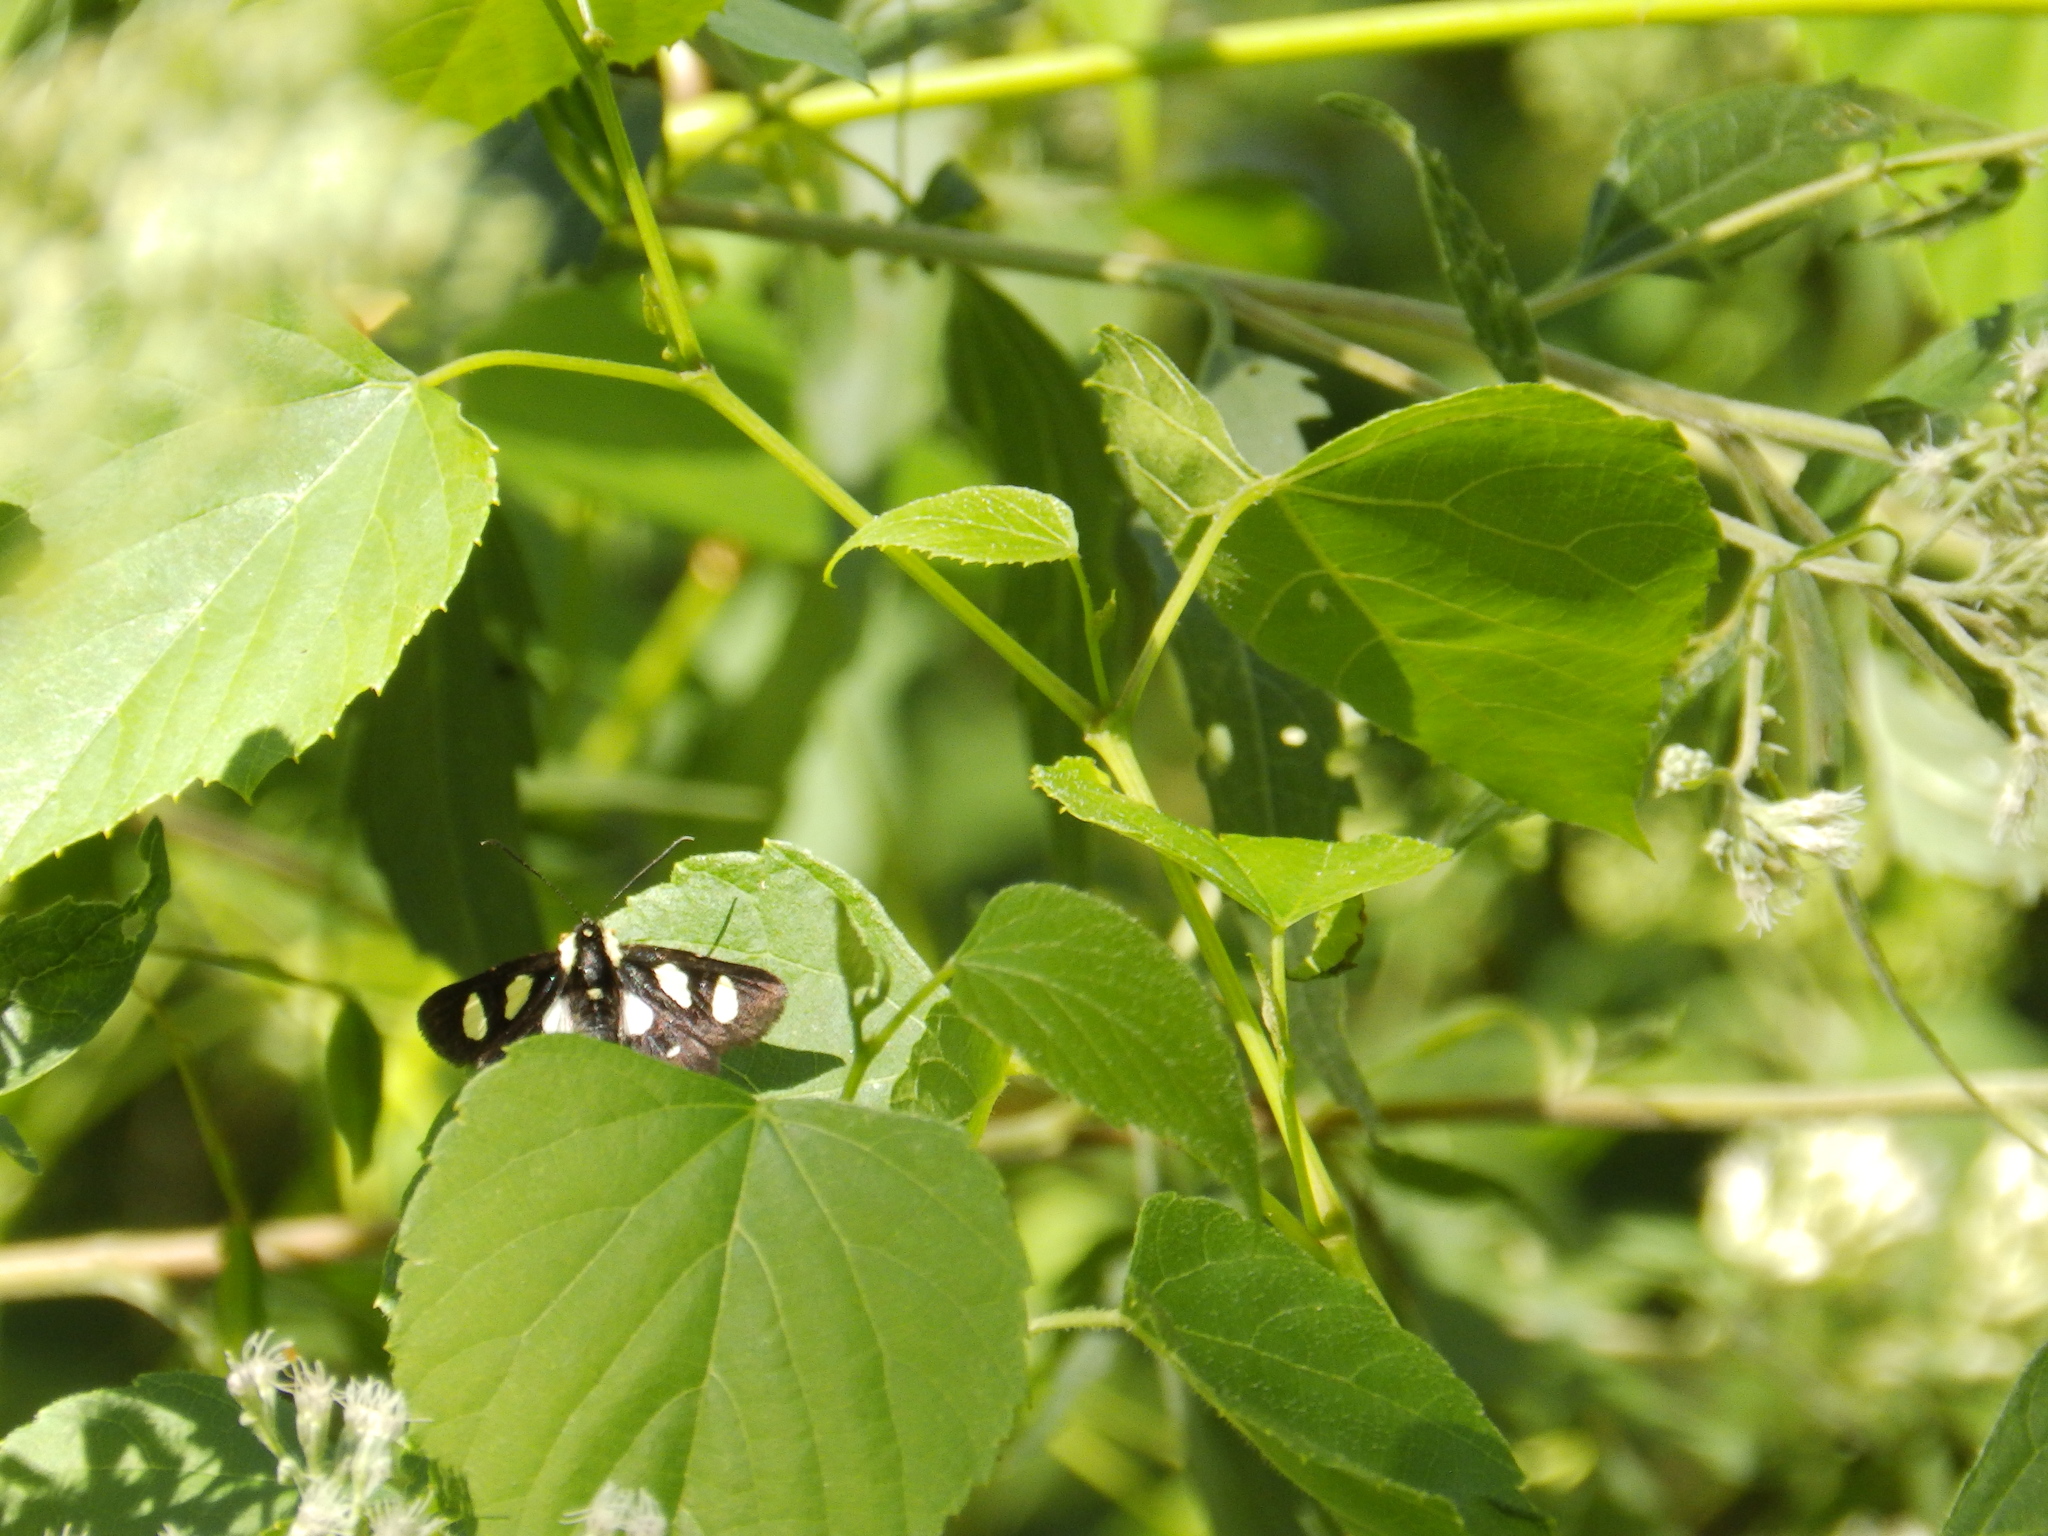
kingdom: Animalia
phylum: Arthropoda
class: Insecta
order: Lepidoptera
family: Noctuidae
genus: Alypia
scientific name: Alypia octomaculata
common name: Eight-spotted forester
